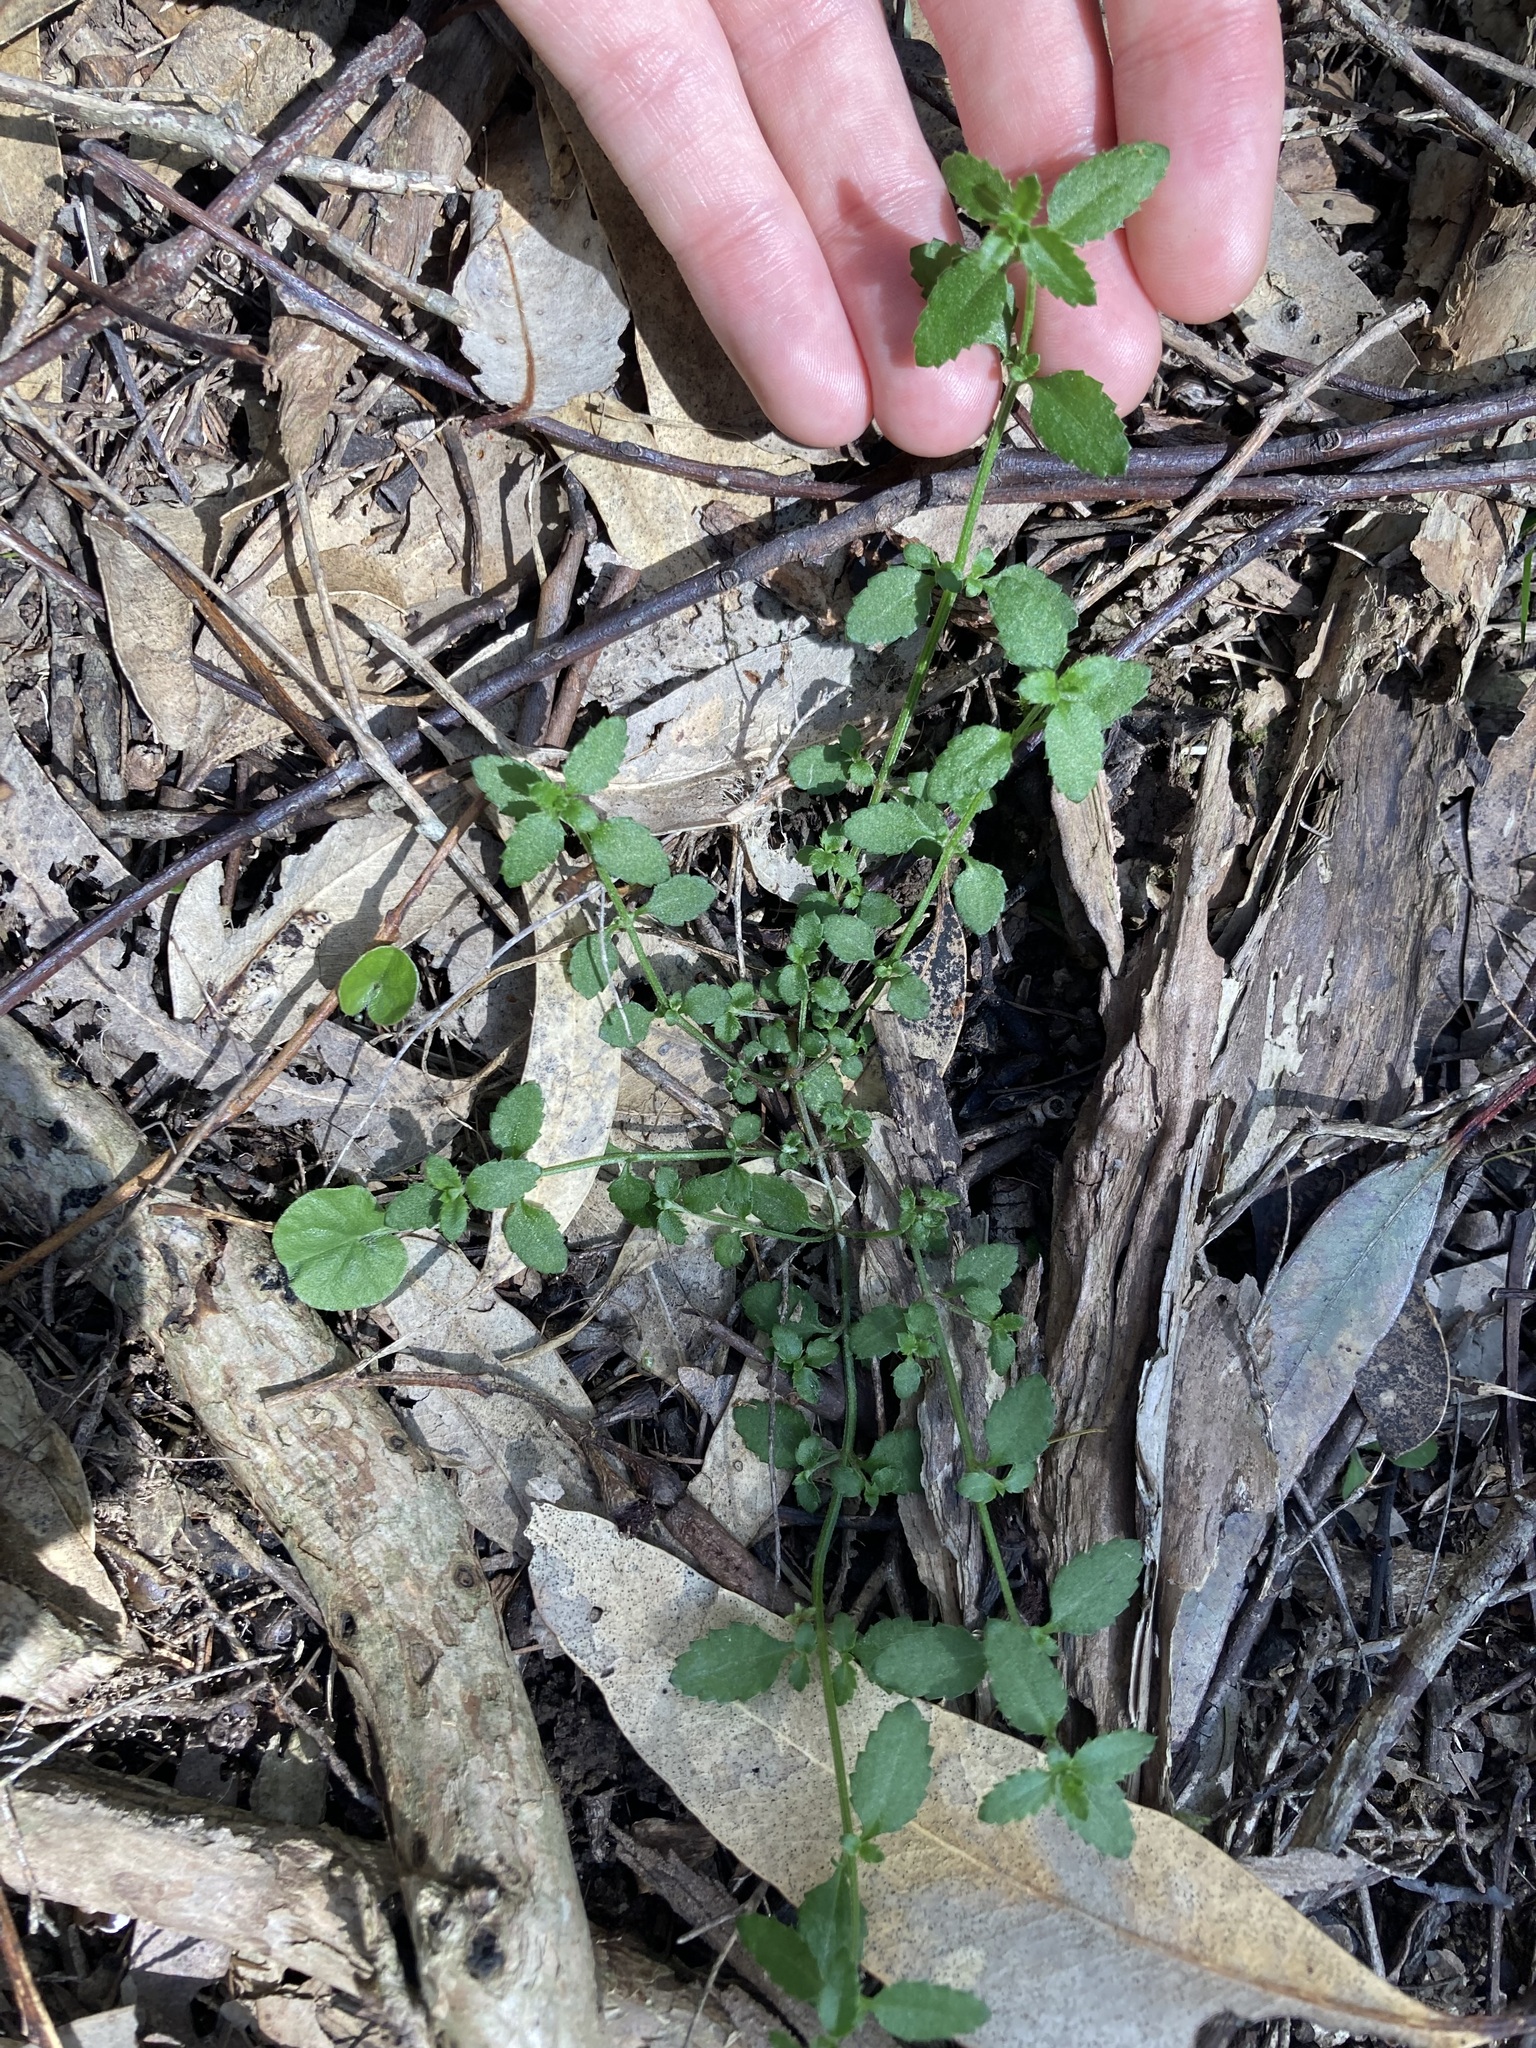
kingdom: Plantae
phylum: Tracheophyta
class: Magnoliopsida
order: Saxifragales
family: Haloragaceae
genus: Gonocarpus
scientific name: Gonocarpus humilis
